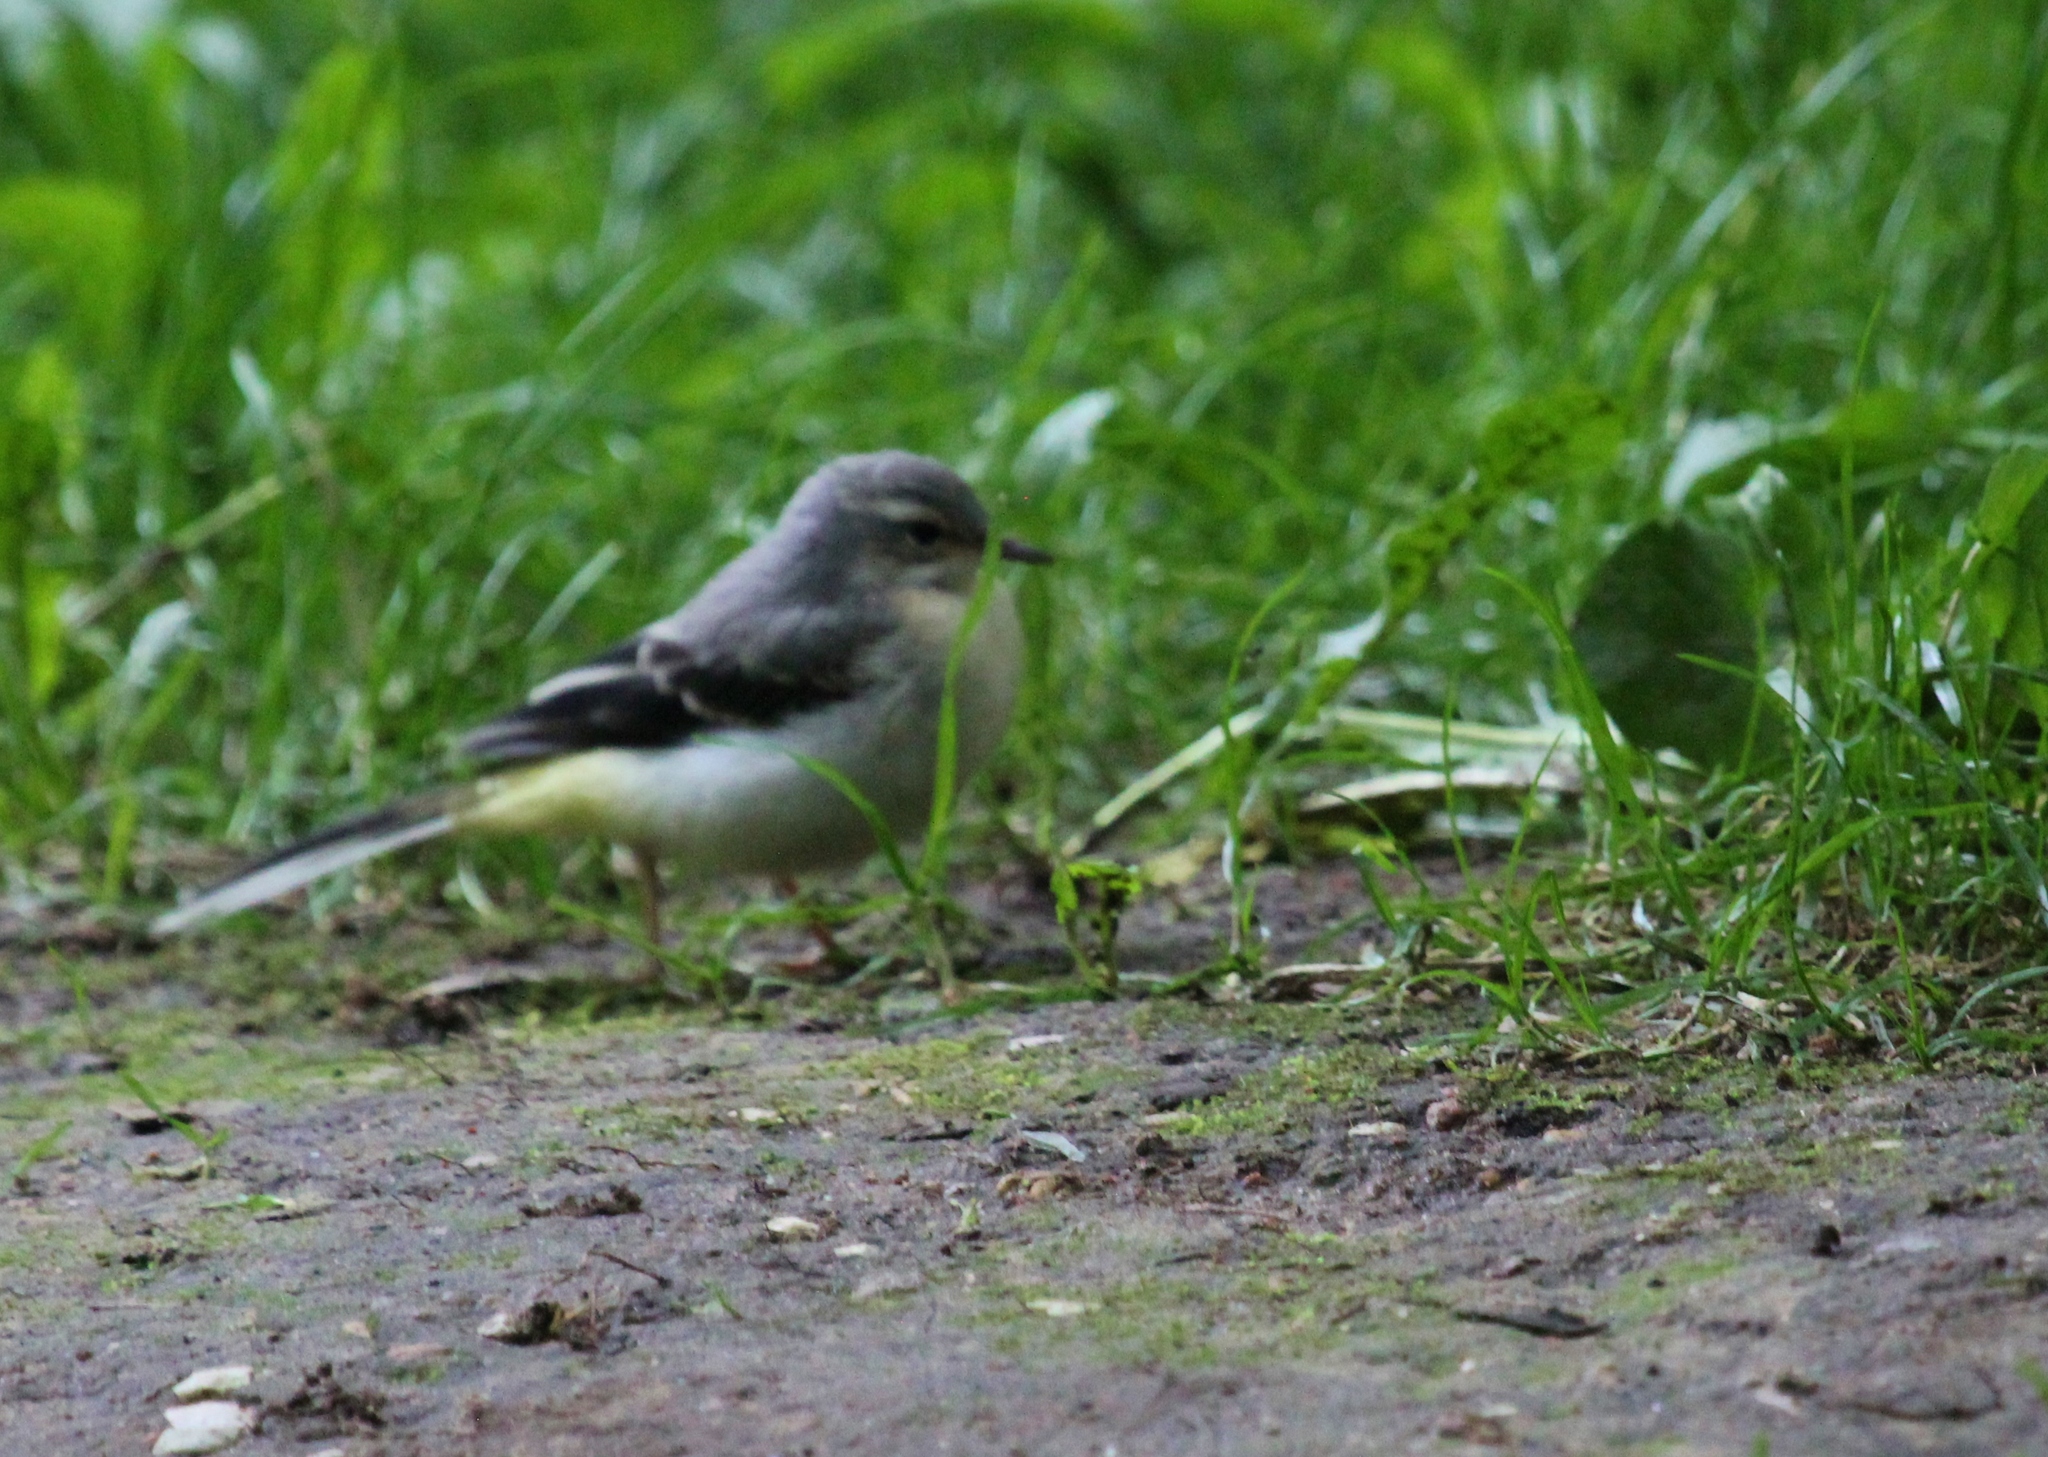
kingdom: Animalia
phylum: Chordata
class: Aves
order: Passeriformes
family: Motacillidae
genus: Motacilla
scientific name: Motacilla cinerea
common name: Grey wagtail
